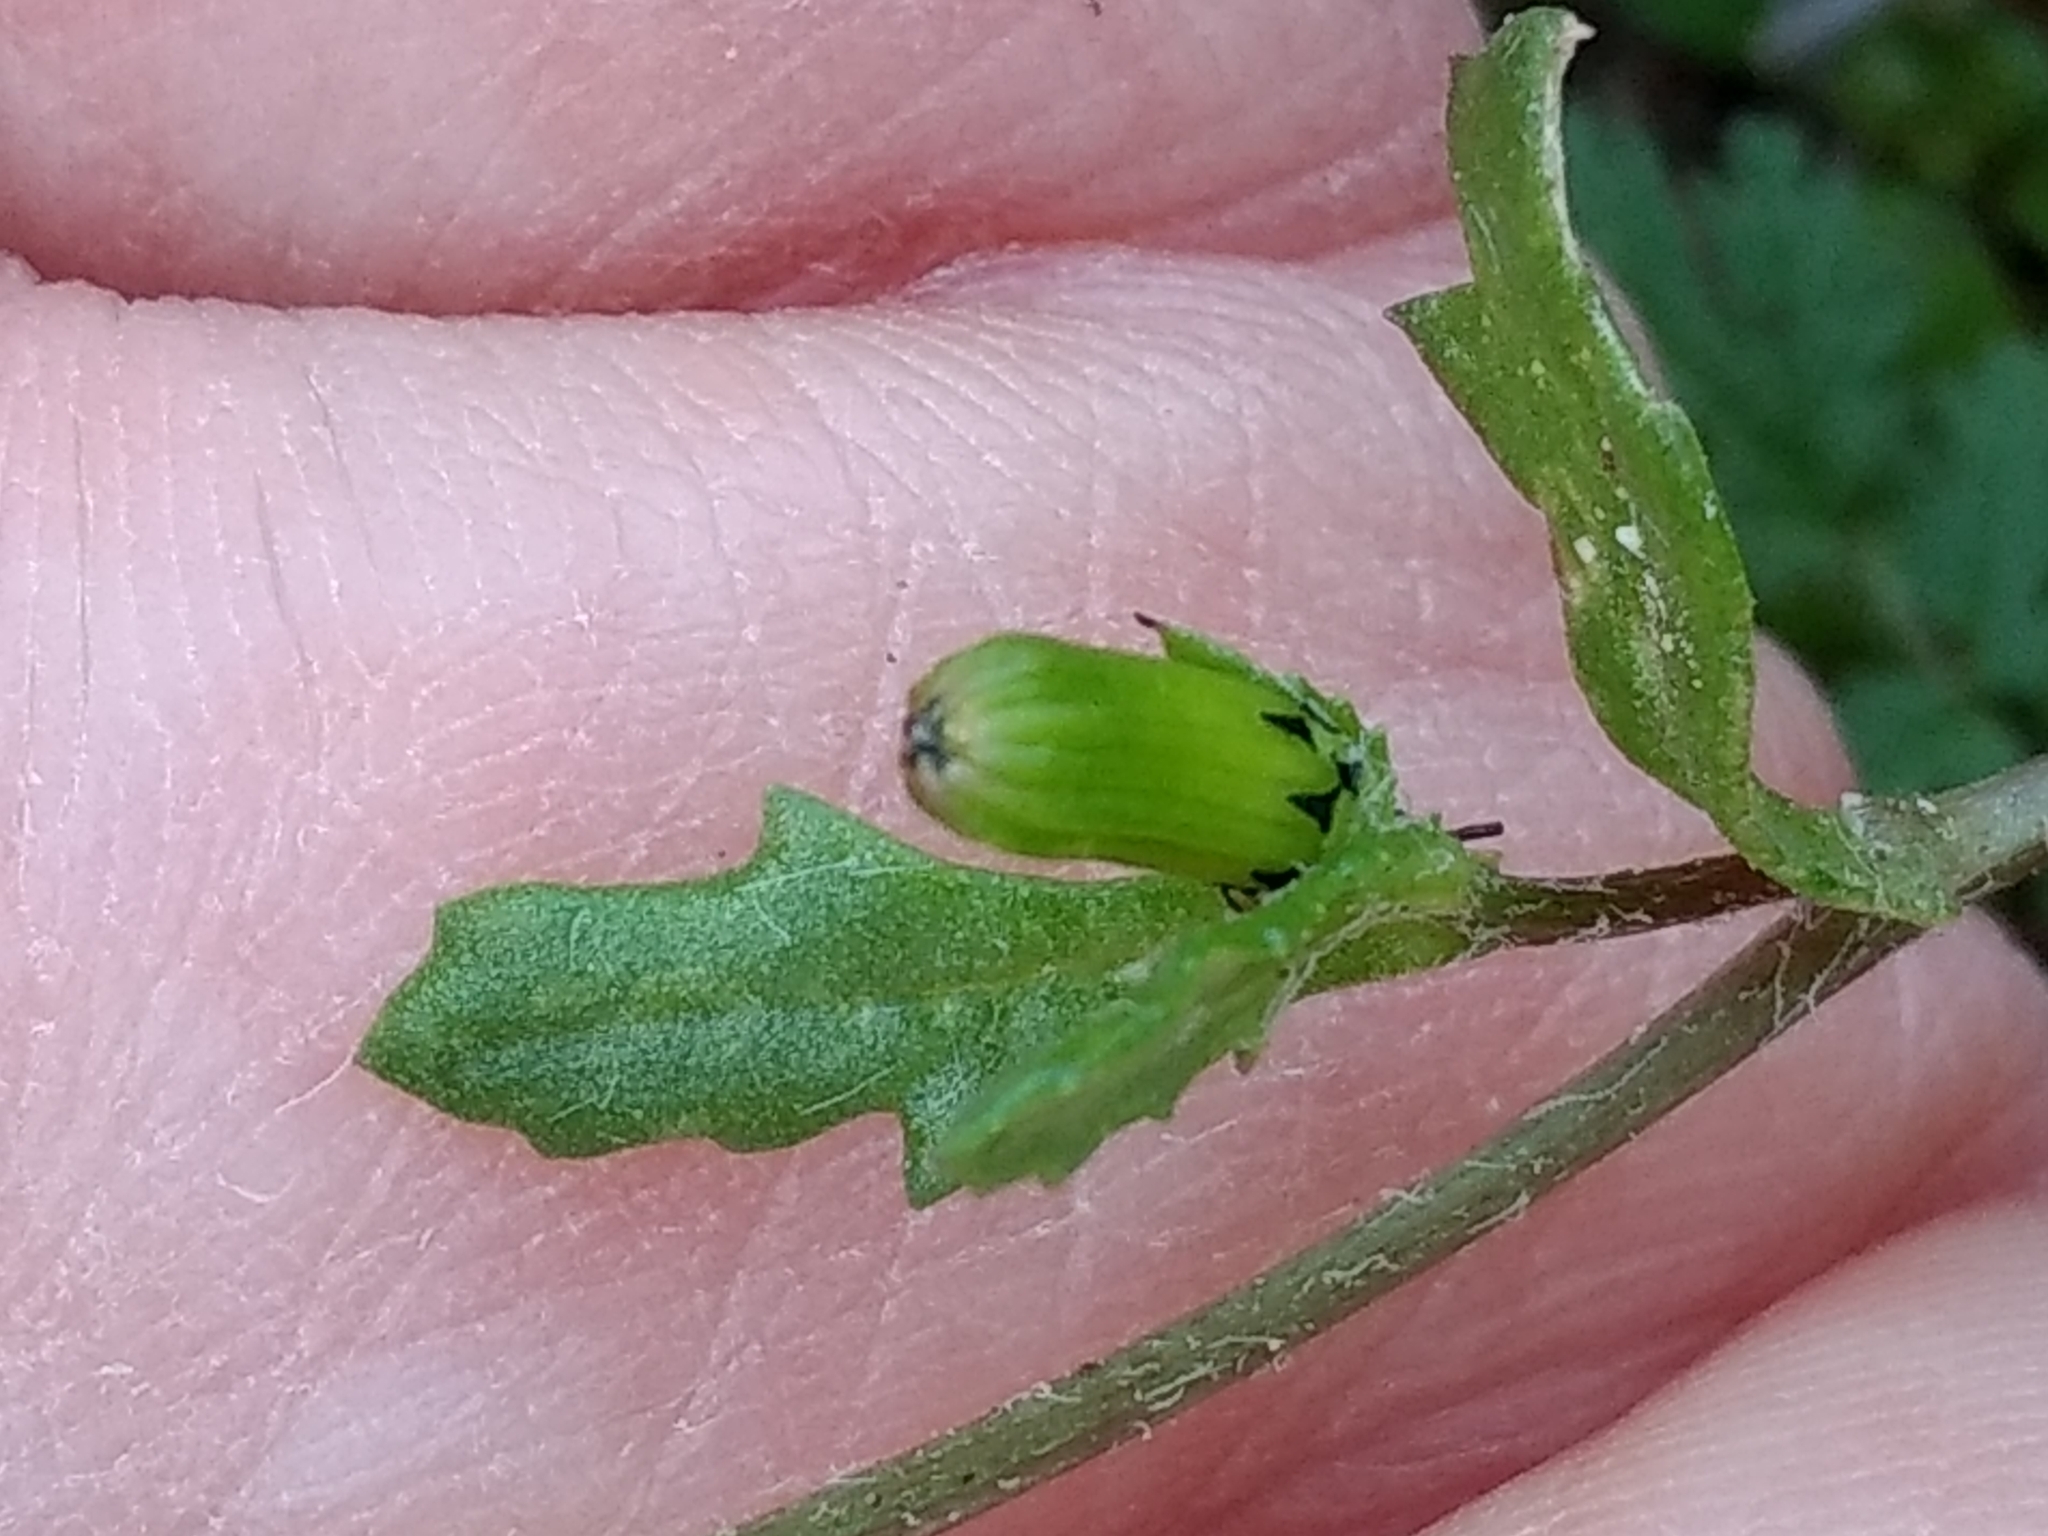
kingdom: Plantae
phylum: Tracheophyta
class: Magnoliopsida
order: Asterales
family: Asteraceae
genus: Senecio
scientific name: Senecio vulgaris
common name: Old-man-in-the-spring
